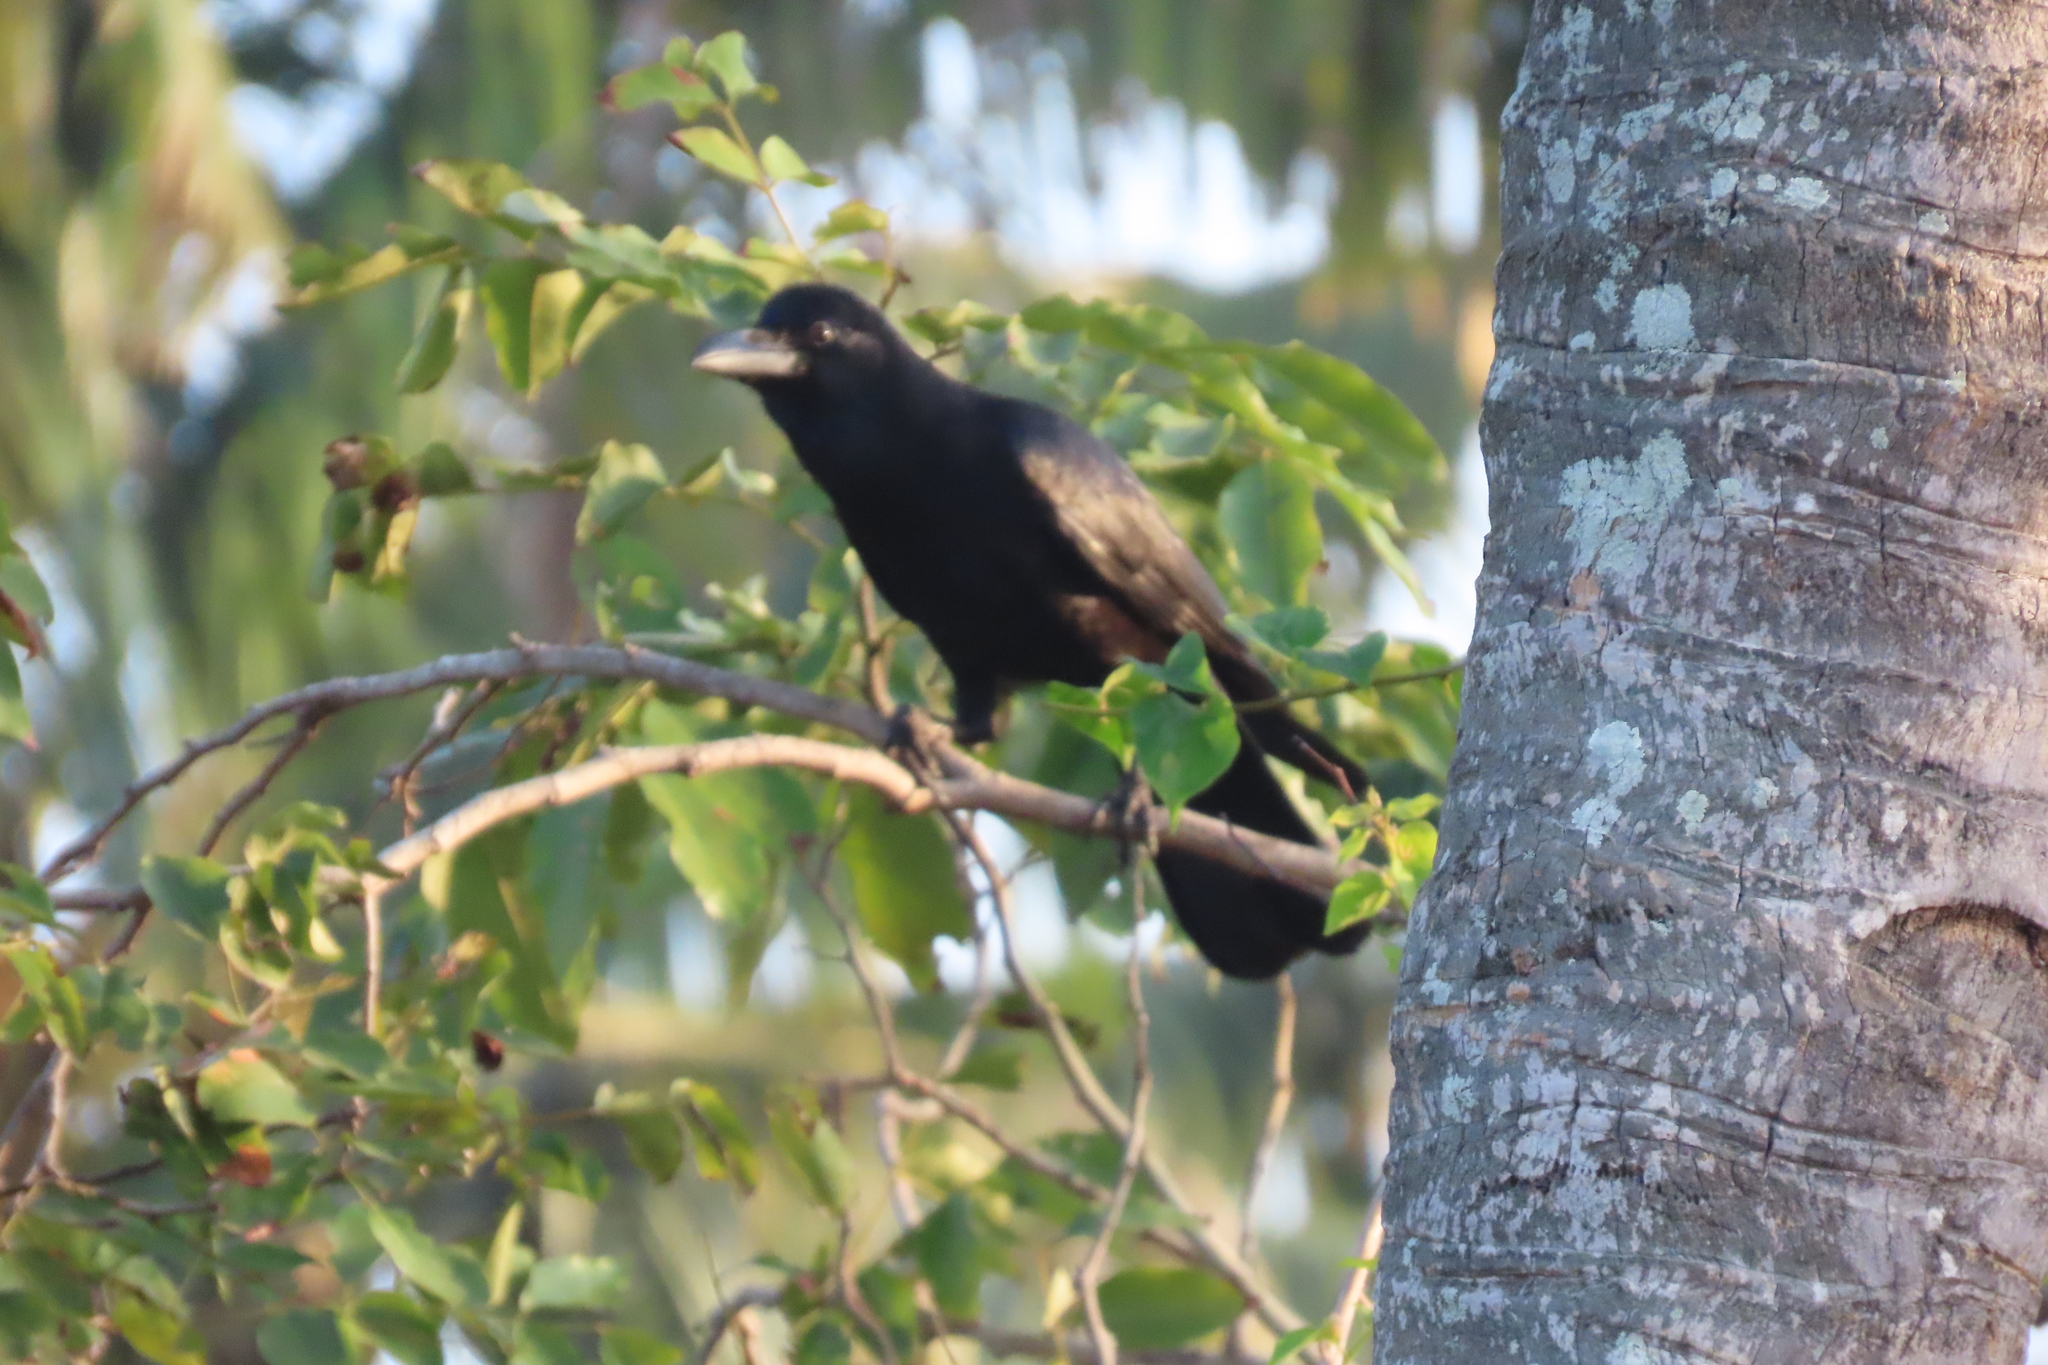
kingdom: Animalia
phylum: Chordata
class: Aves
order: Passeriformes
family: Corvidae
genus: Corvus
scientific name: Corvus macrorhynchos
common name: Large-billed crow
